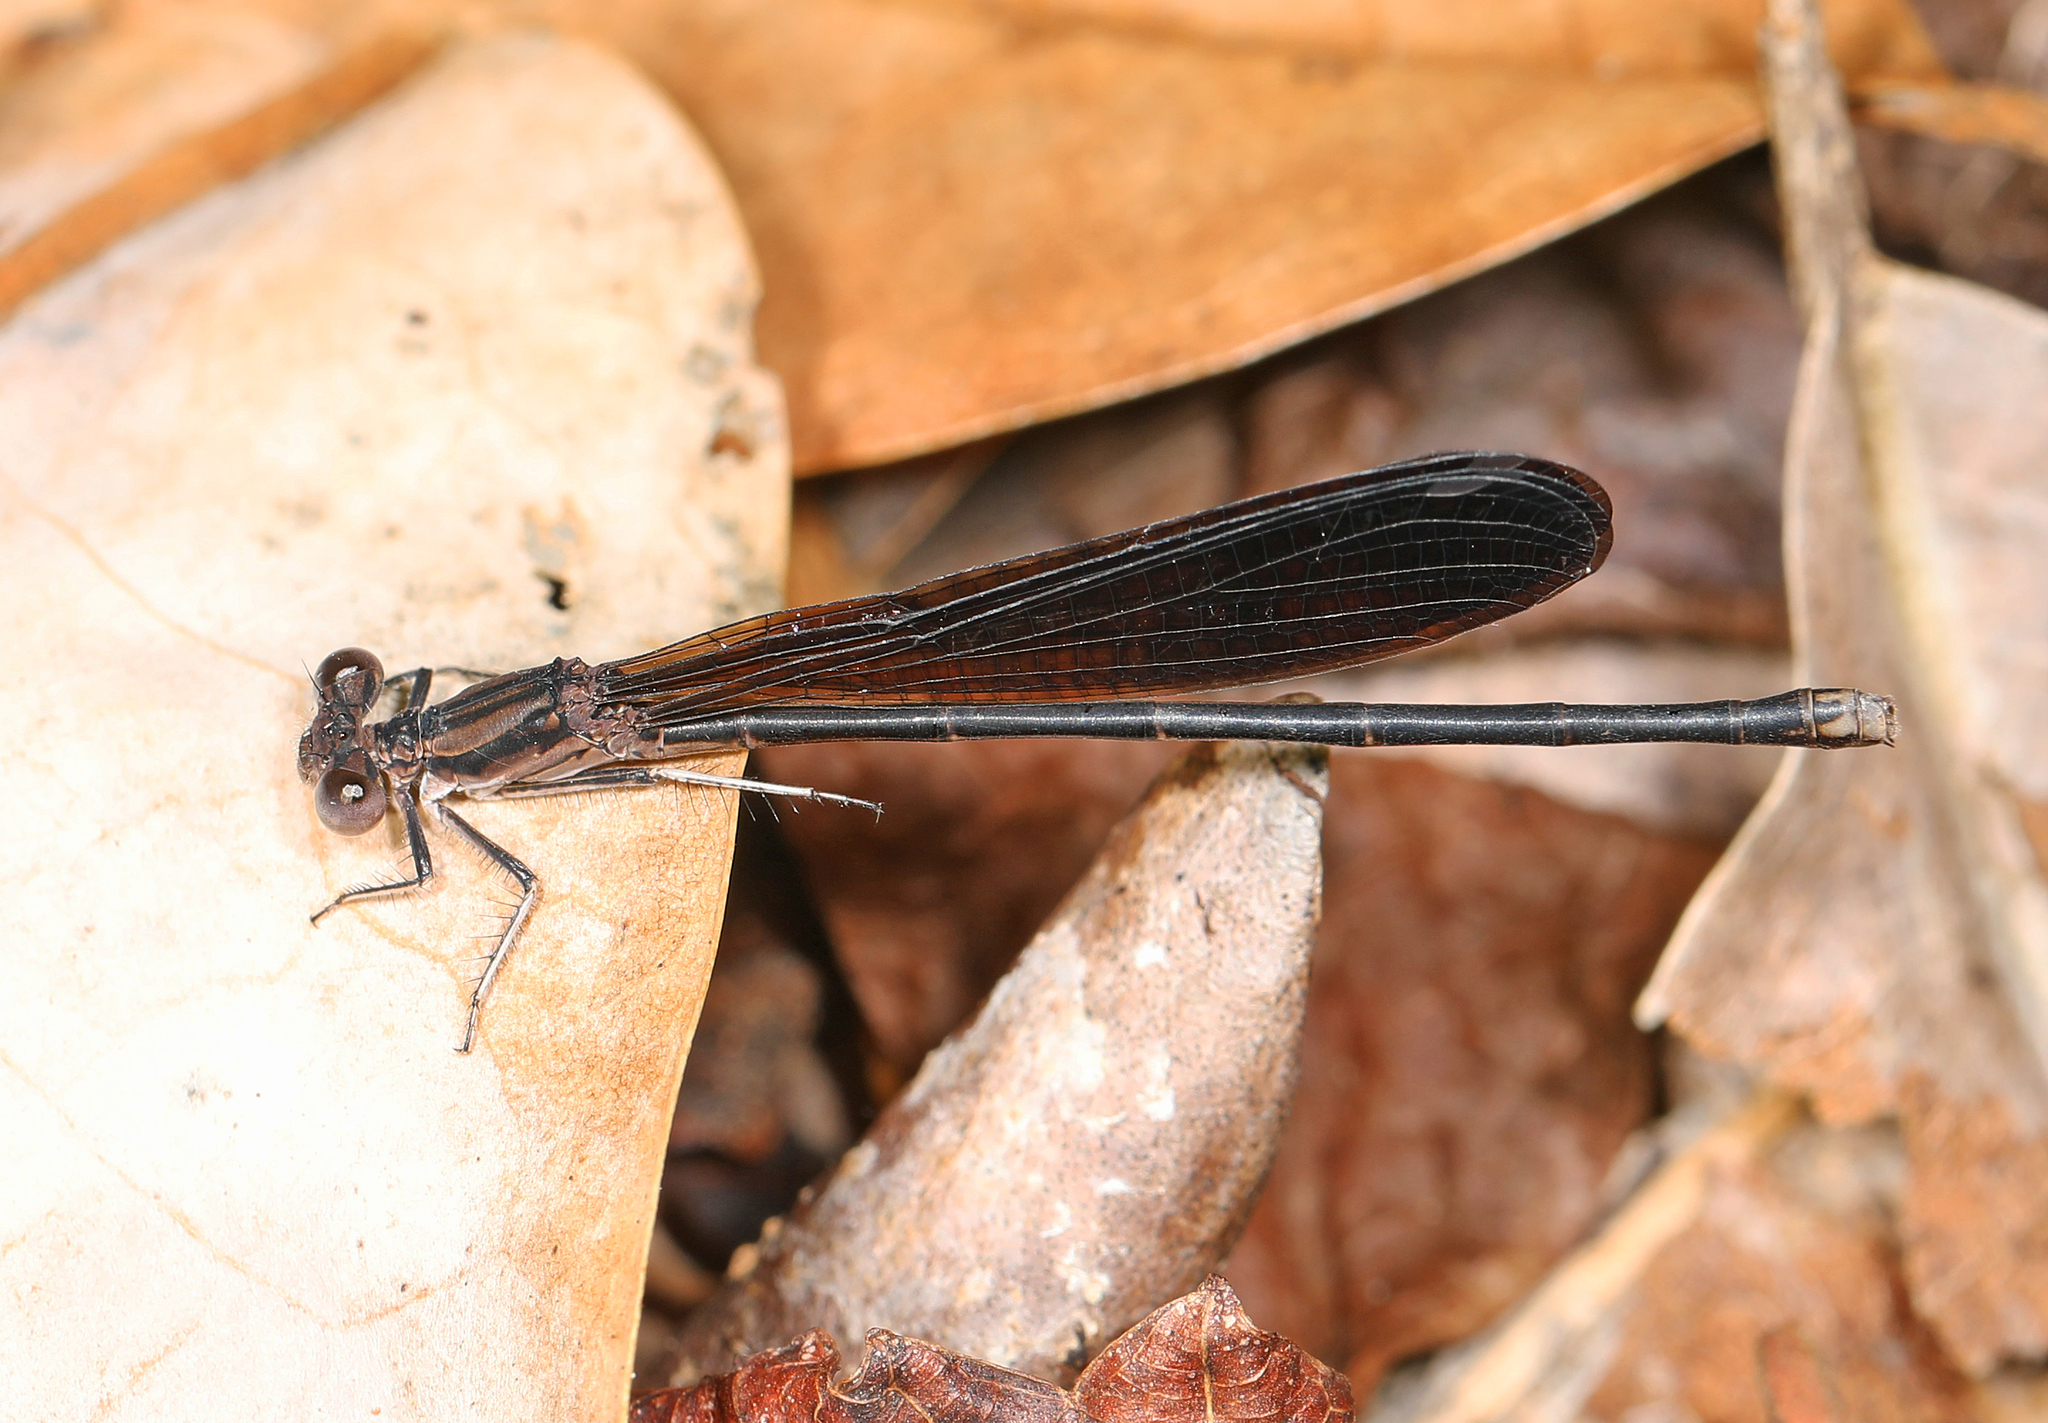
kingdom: Animalia
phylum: Arthropoda
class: Insecta
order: Odonata
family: Coenagrionidae
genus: Argia
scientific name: Argia fumipennis
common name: Variable dancer
